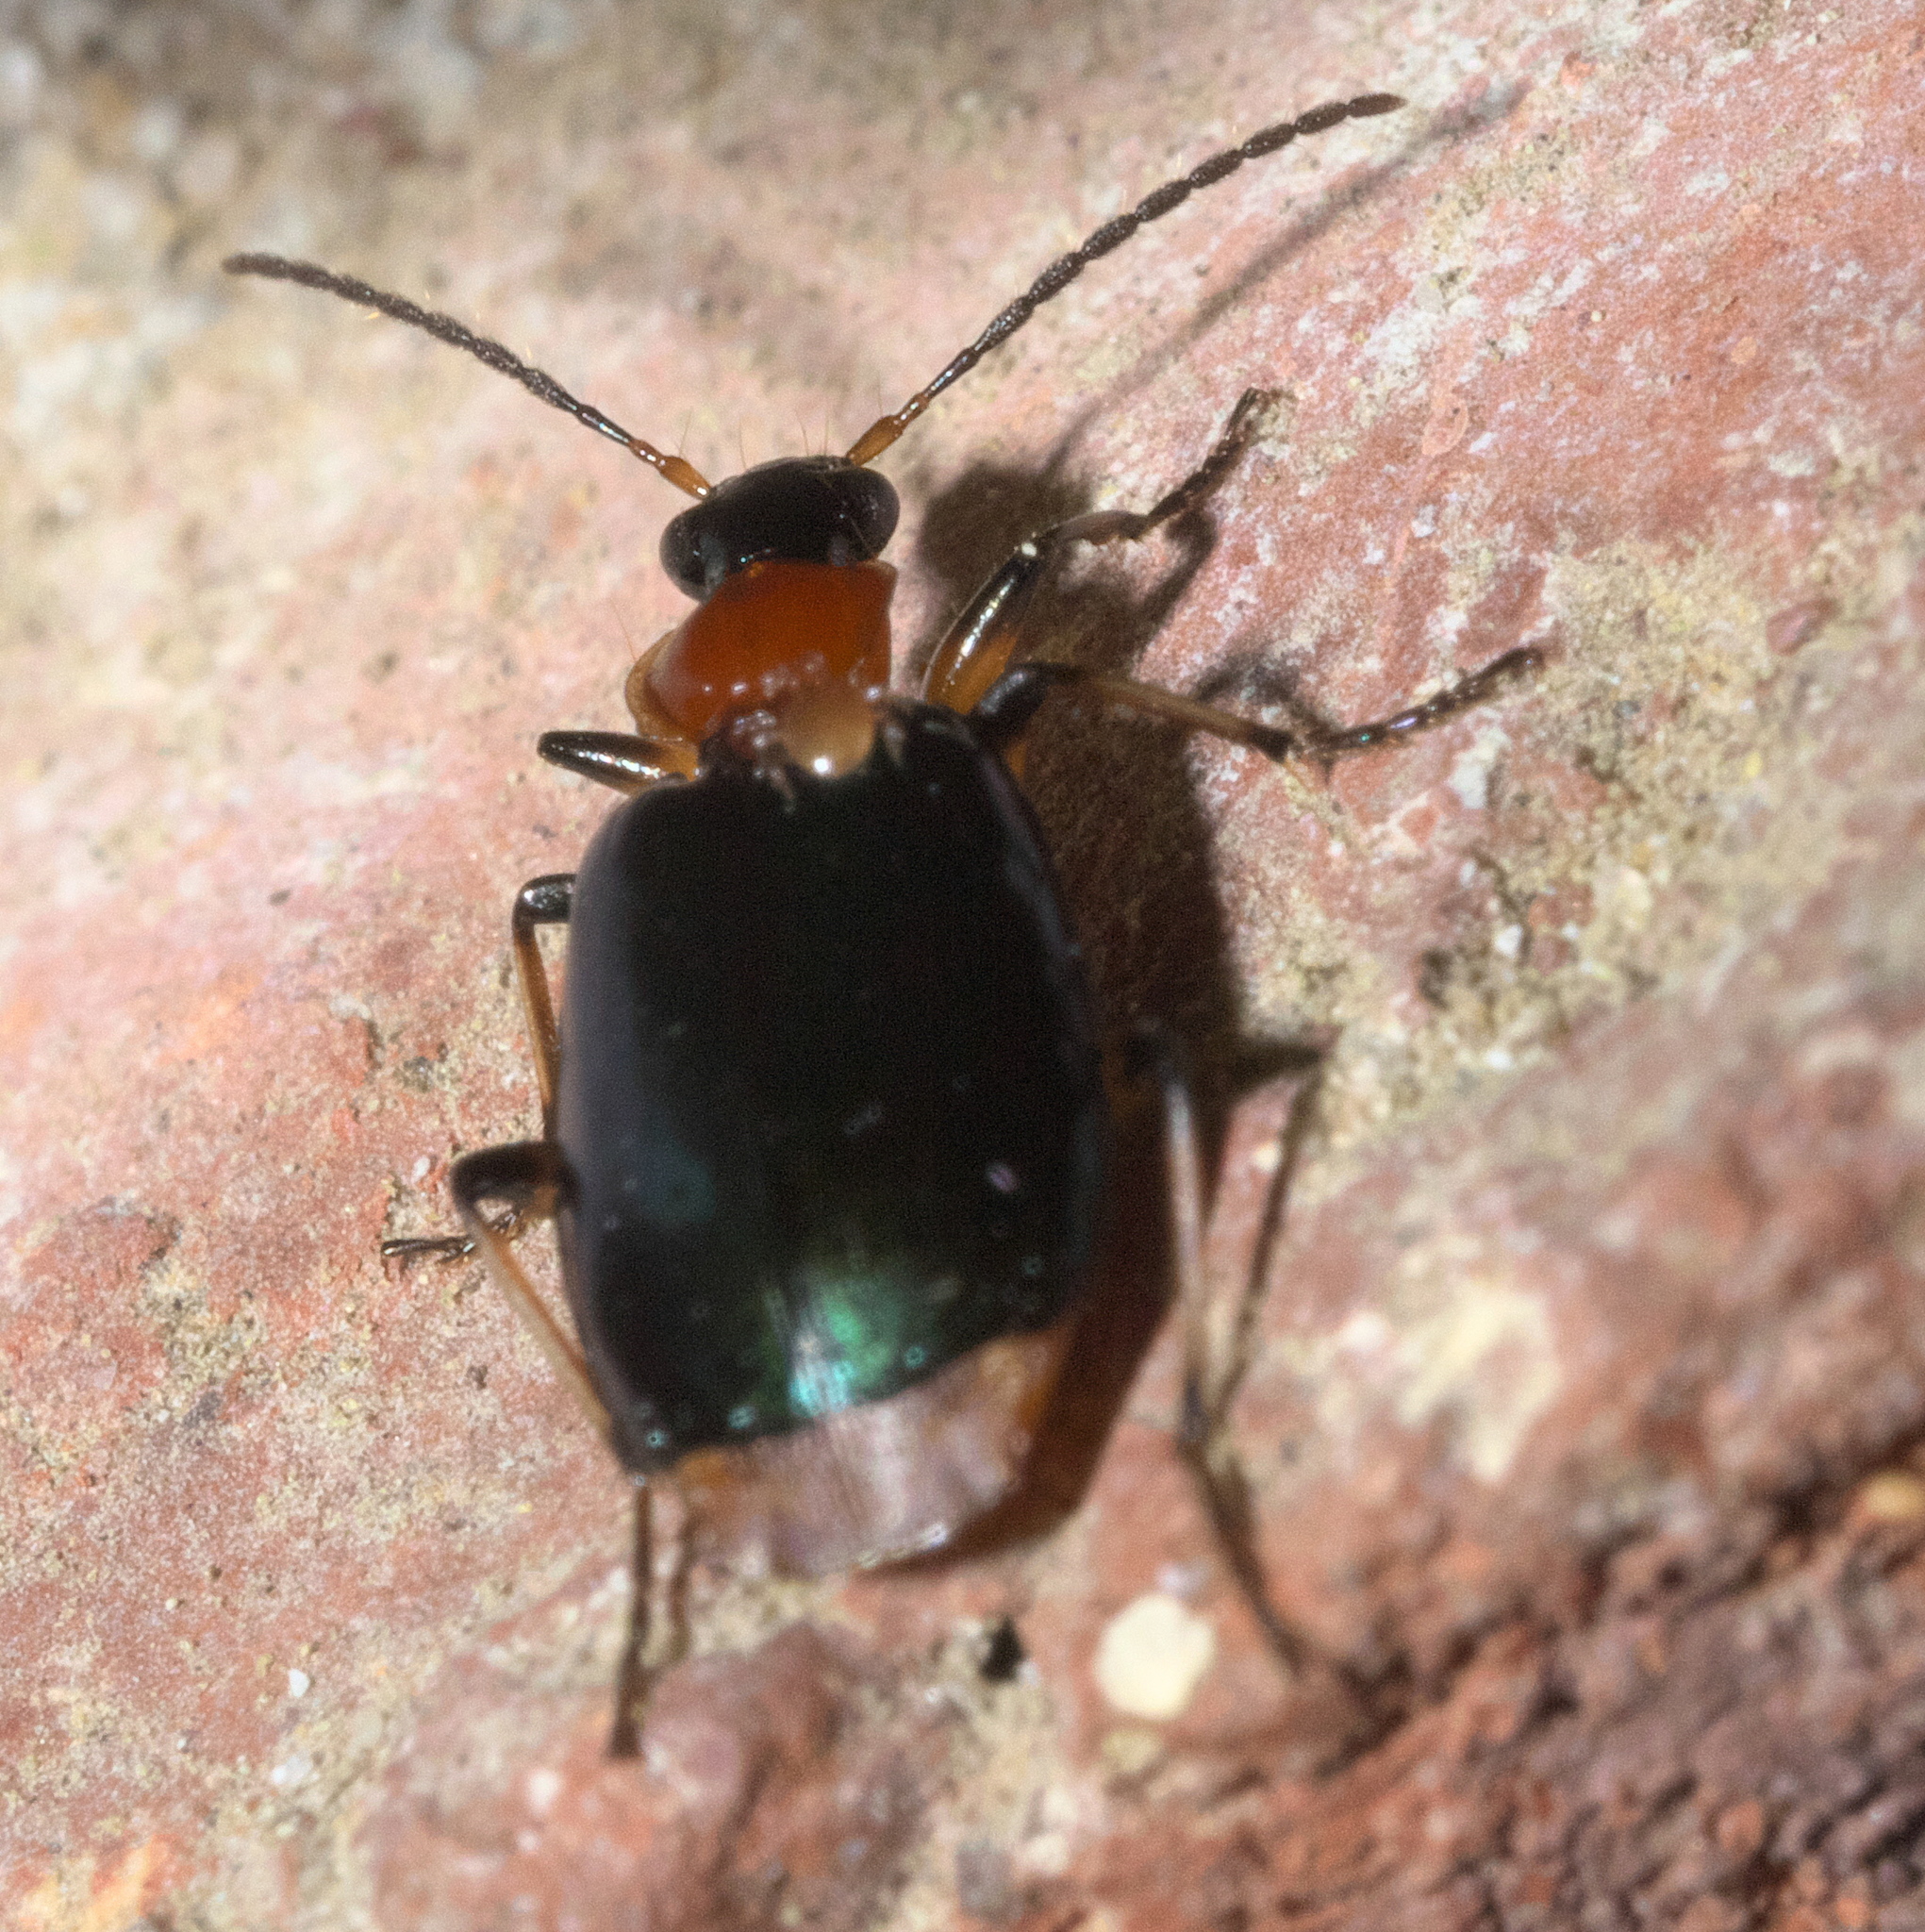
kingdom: Animalia
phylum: Arthropoda
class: Insecta
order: Coleoptera
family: Carabidae
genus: Lebia
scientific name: Lebia viridipennis
